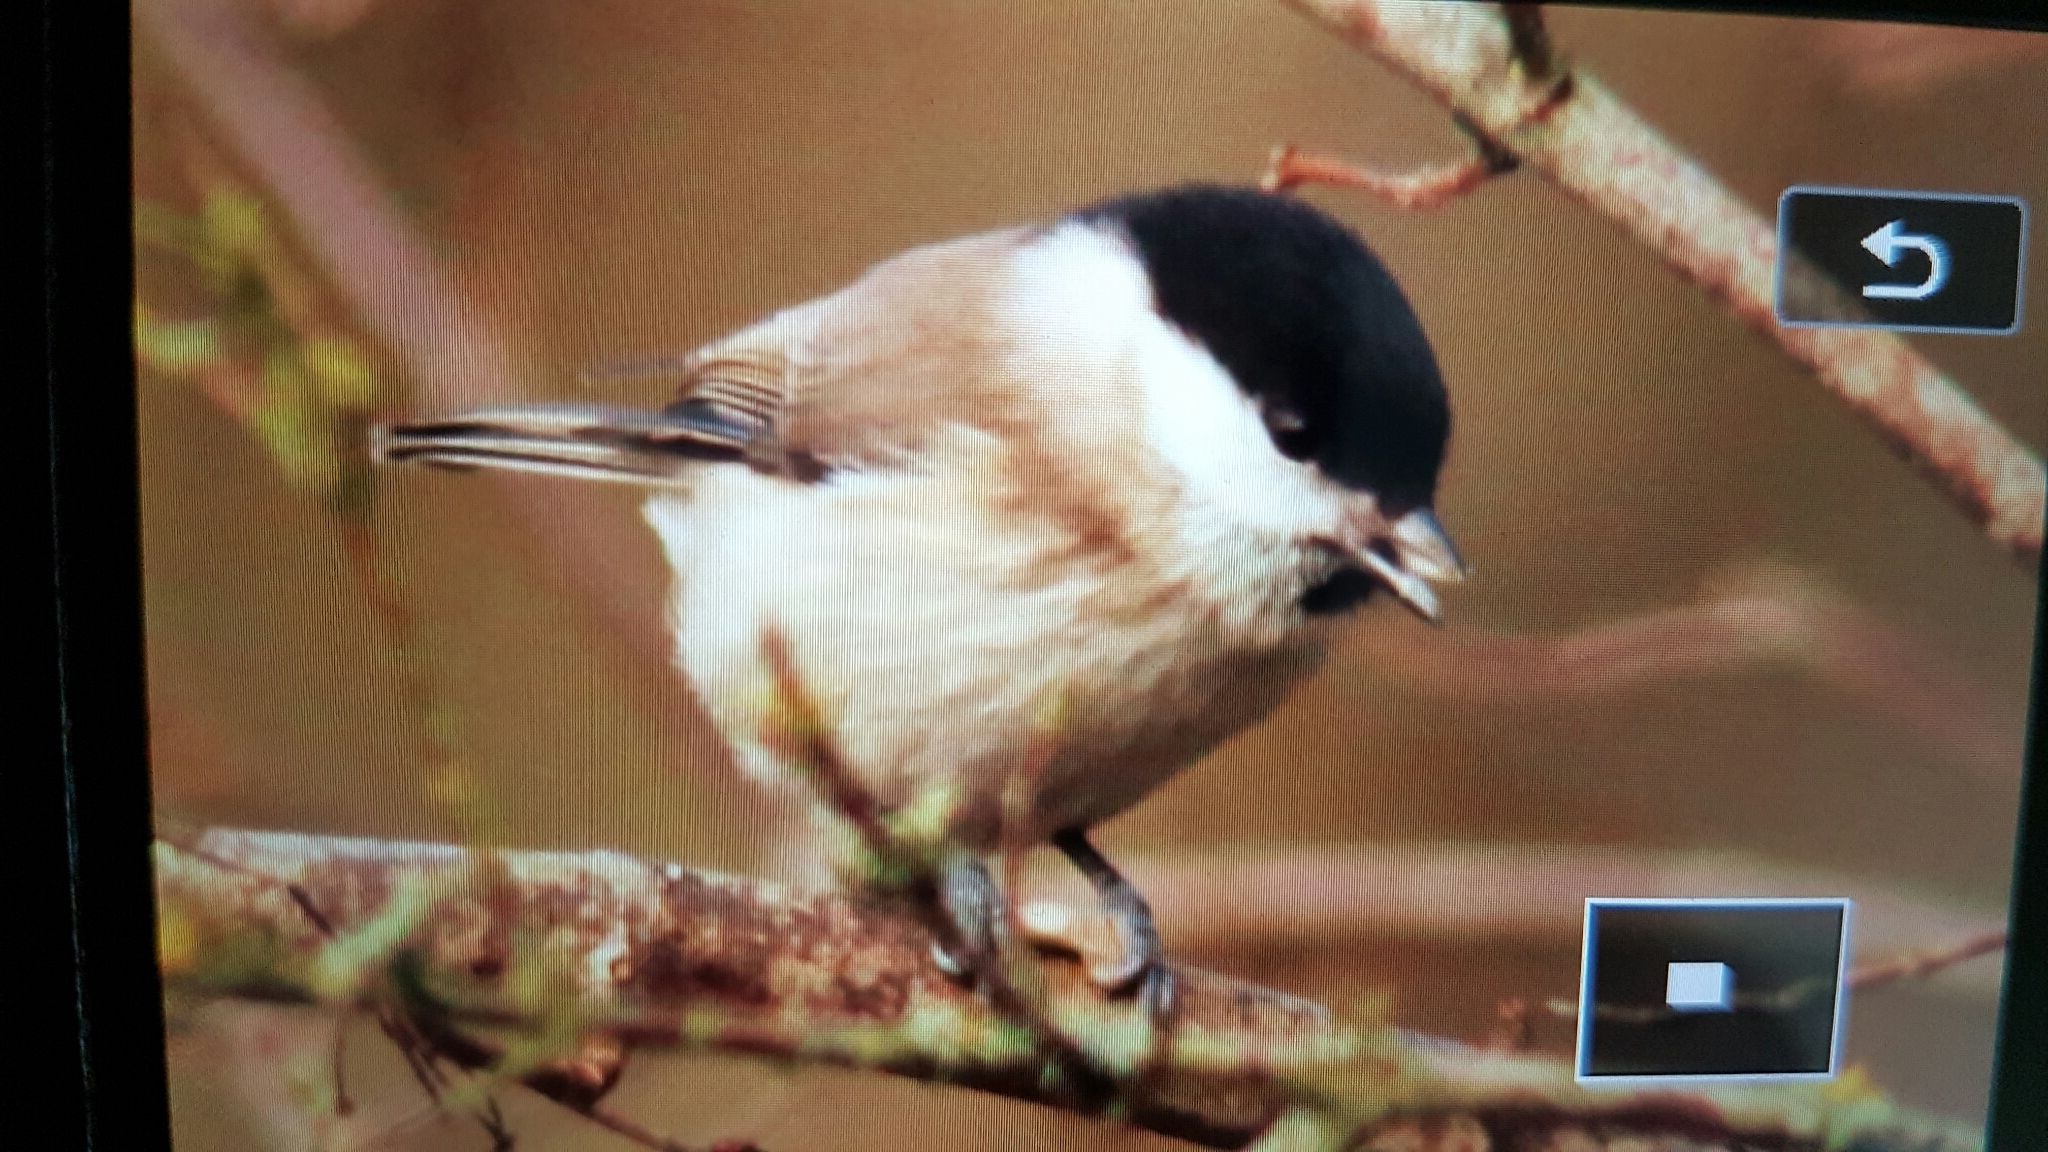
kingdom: Animalia
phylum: Chordata
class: Aves
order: Passeriformes
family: Paridae
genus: Poecile
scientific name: Poecile palustris
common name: Marsh tit
